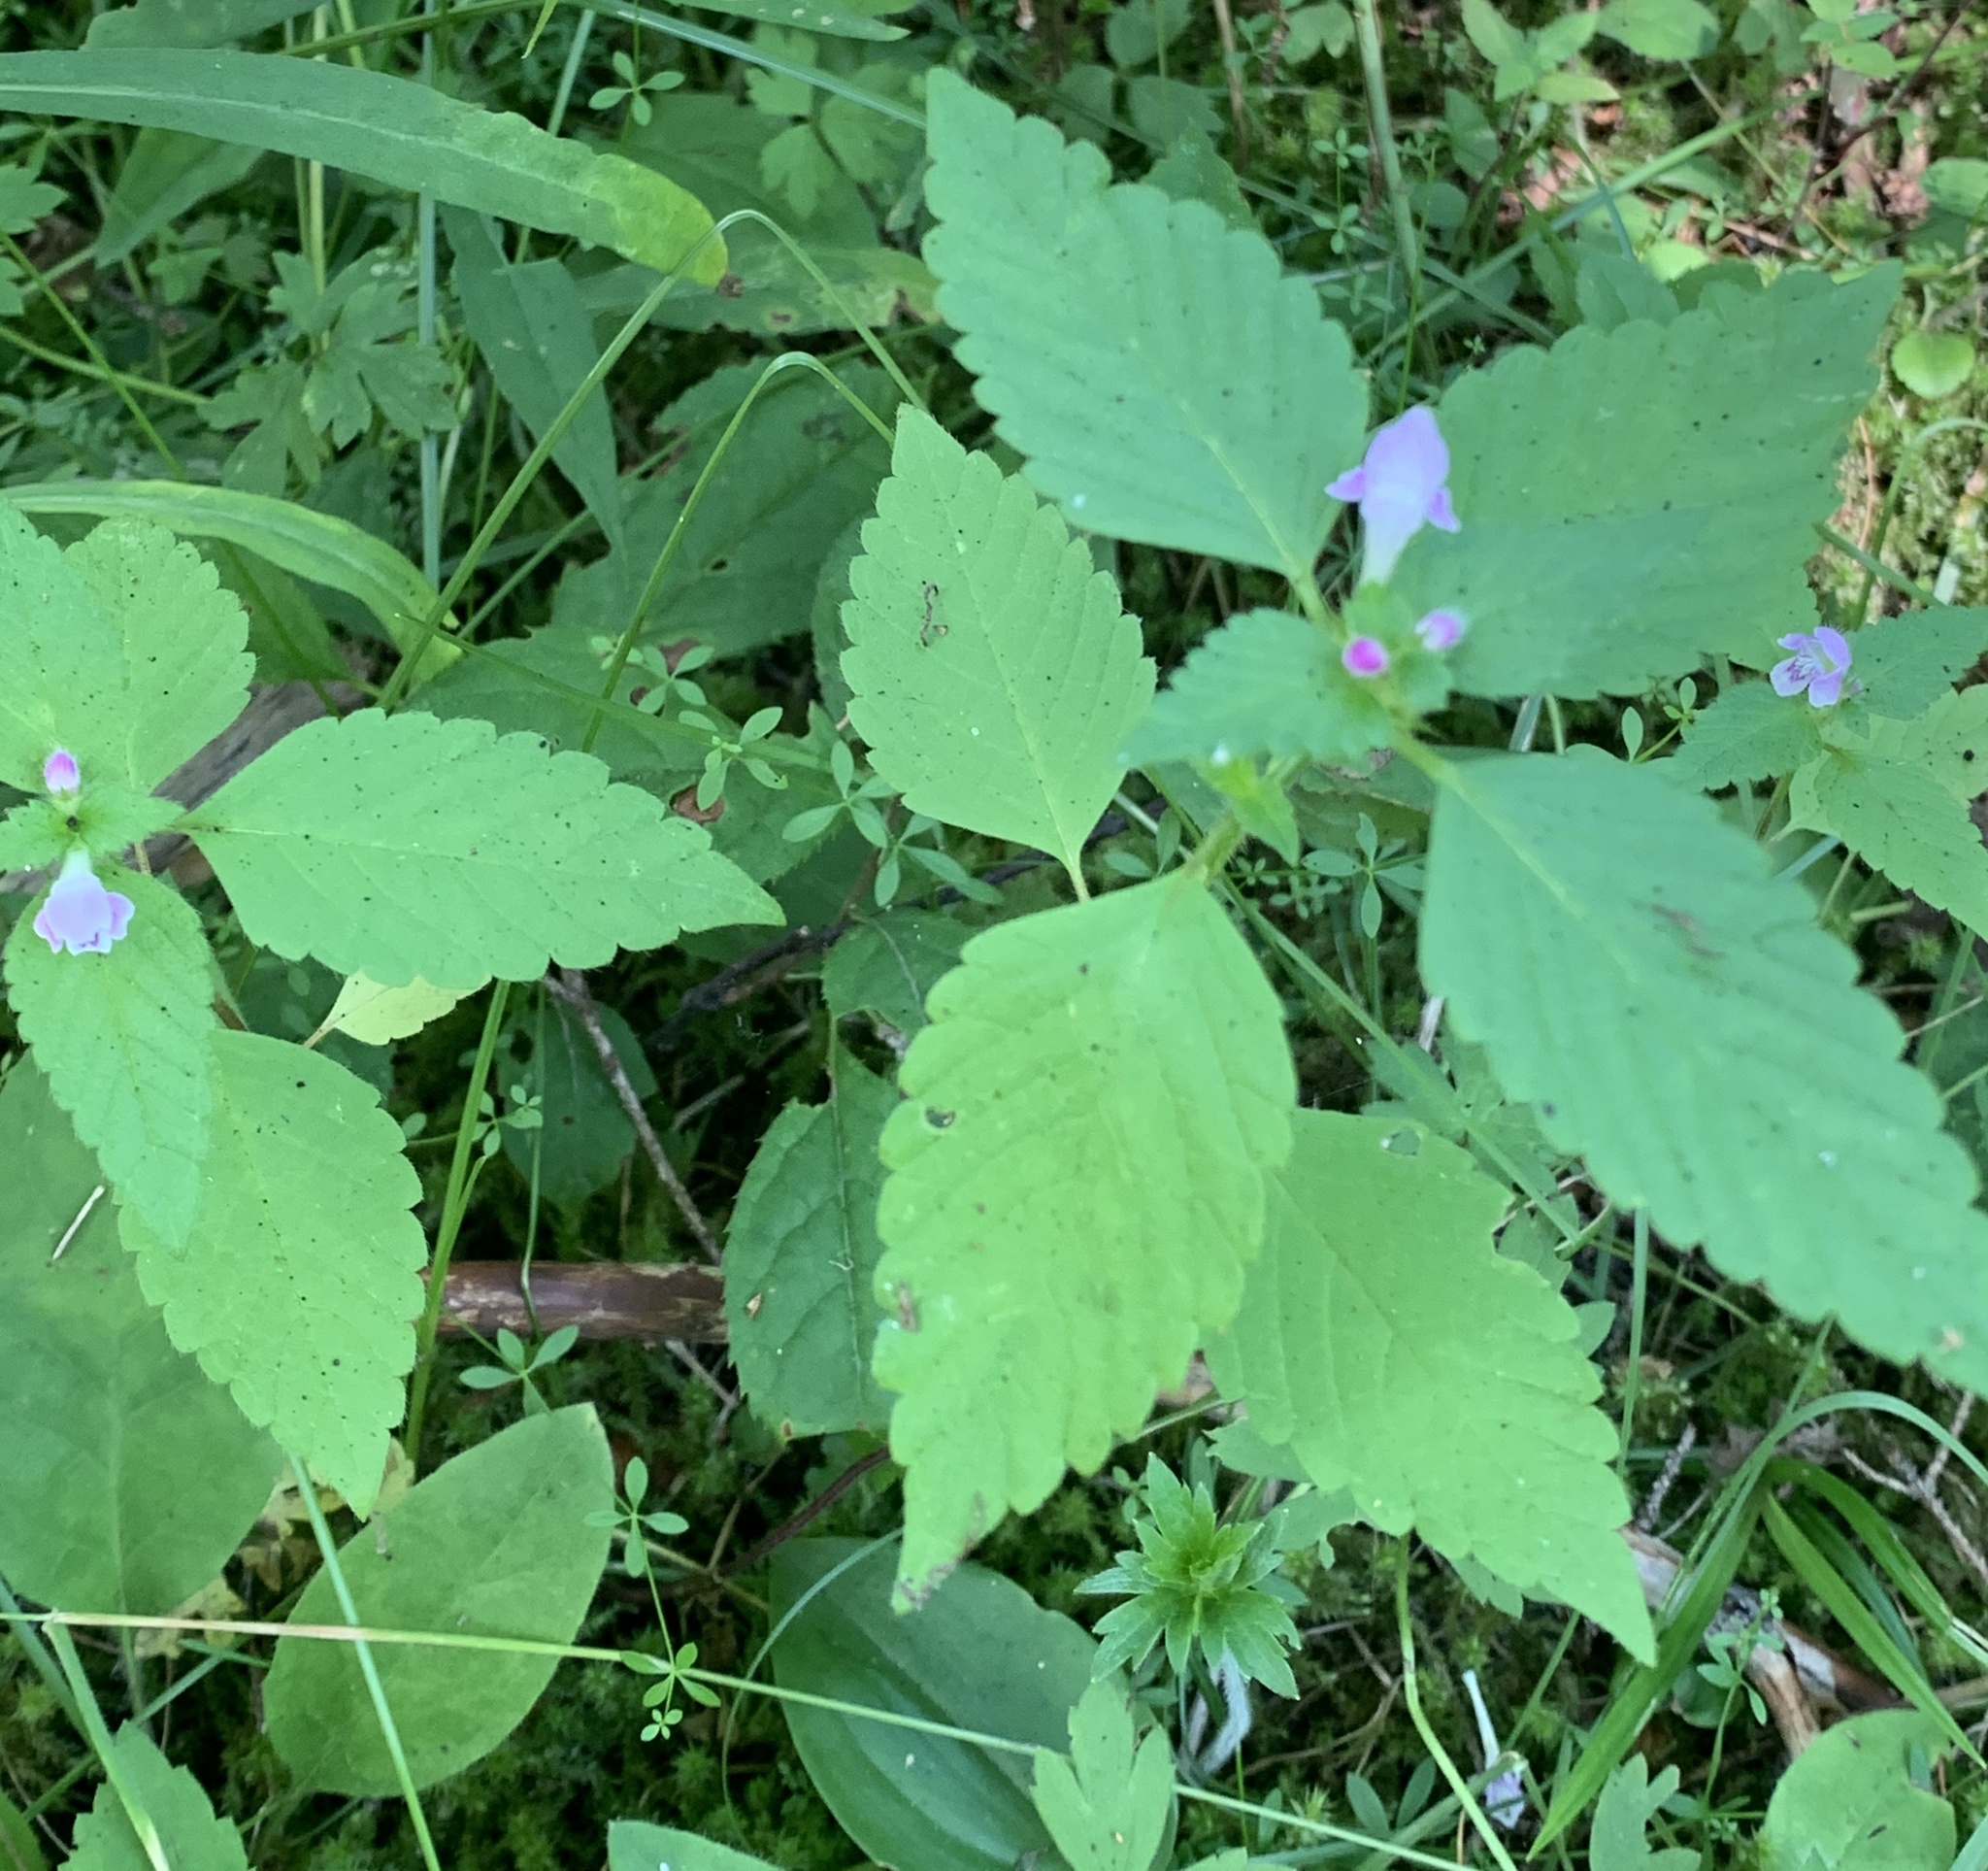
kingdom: Plantae
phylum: Tracheophyta
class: Magnoliopsida
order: Lamiales
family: Lamiaceae
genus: Galeopsis
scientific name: Galeopsis tetrahit
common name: Common hemp-nettle
